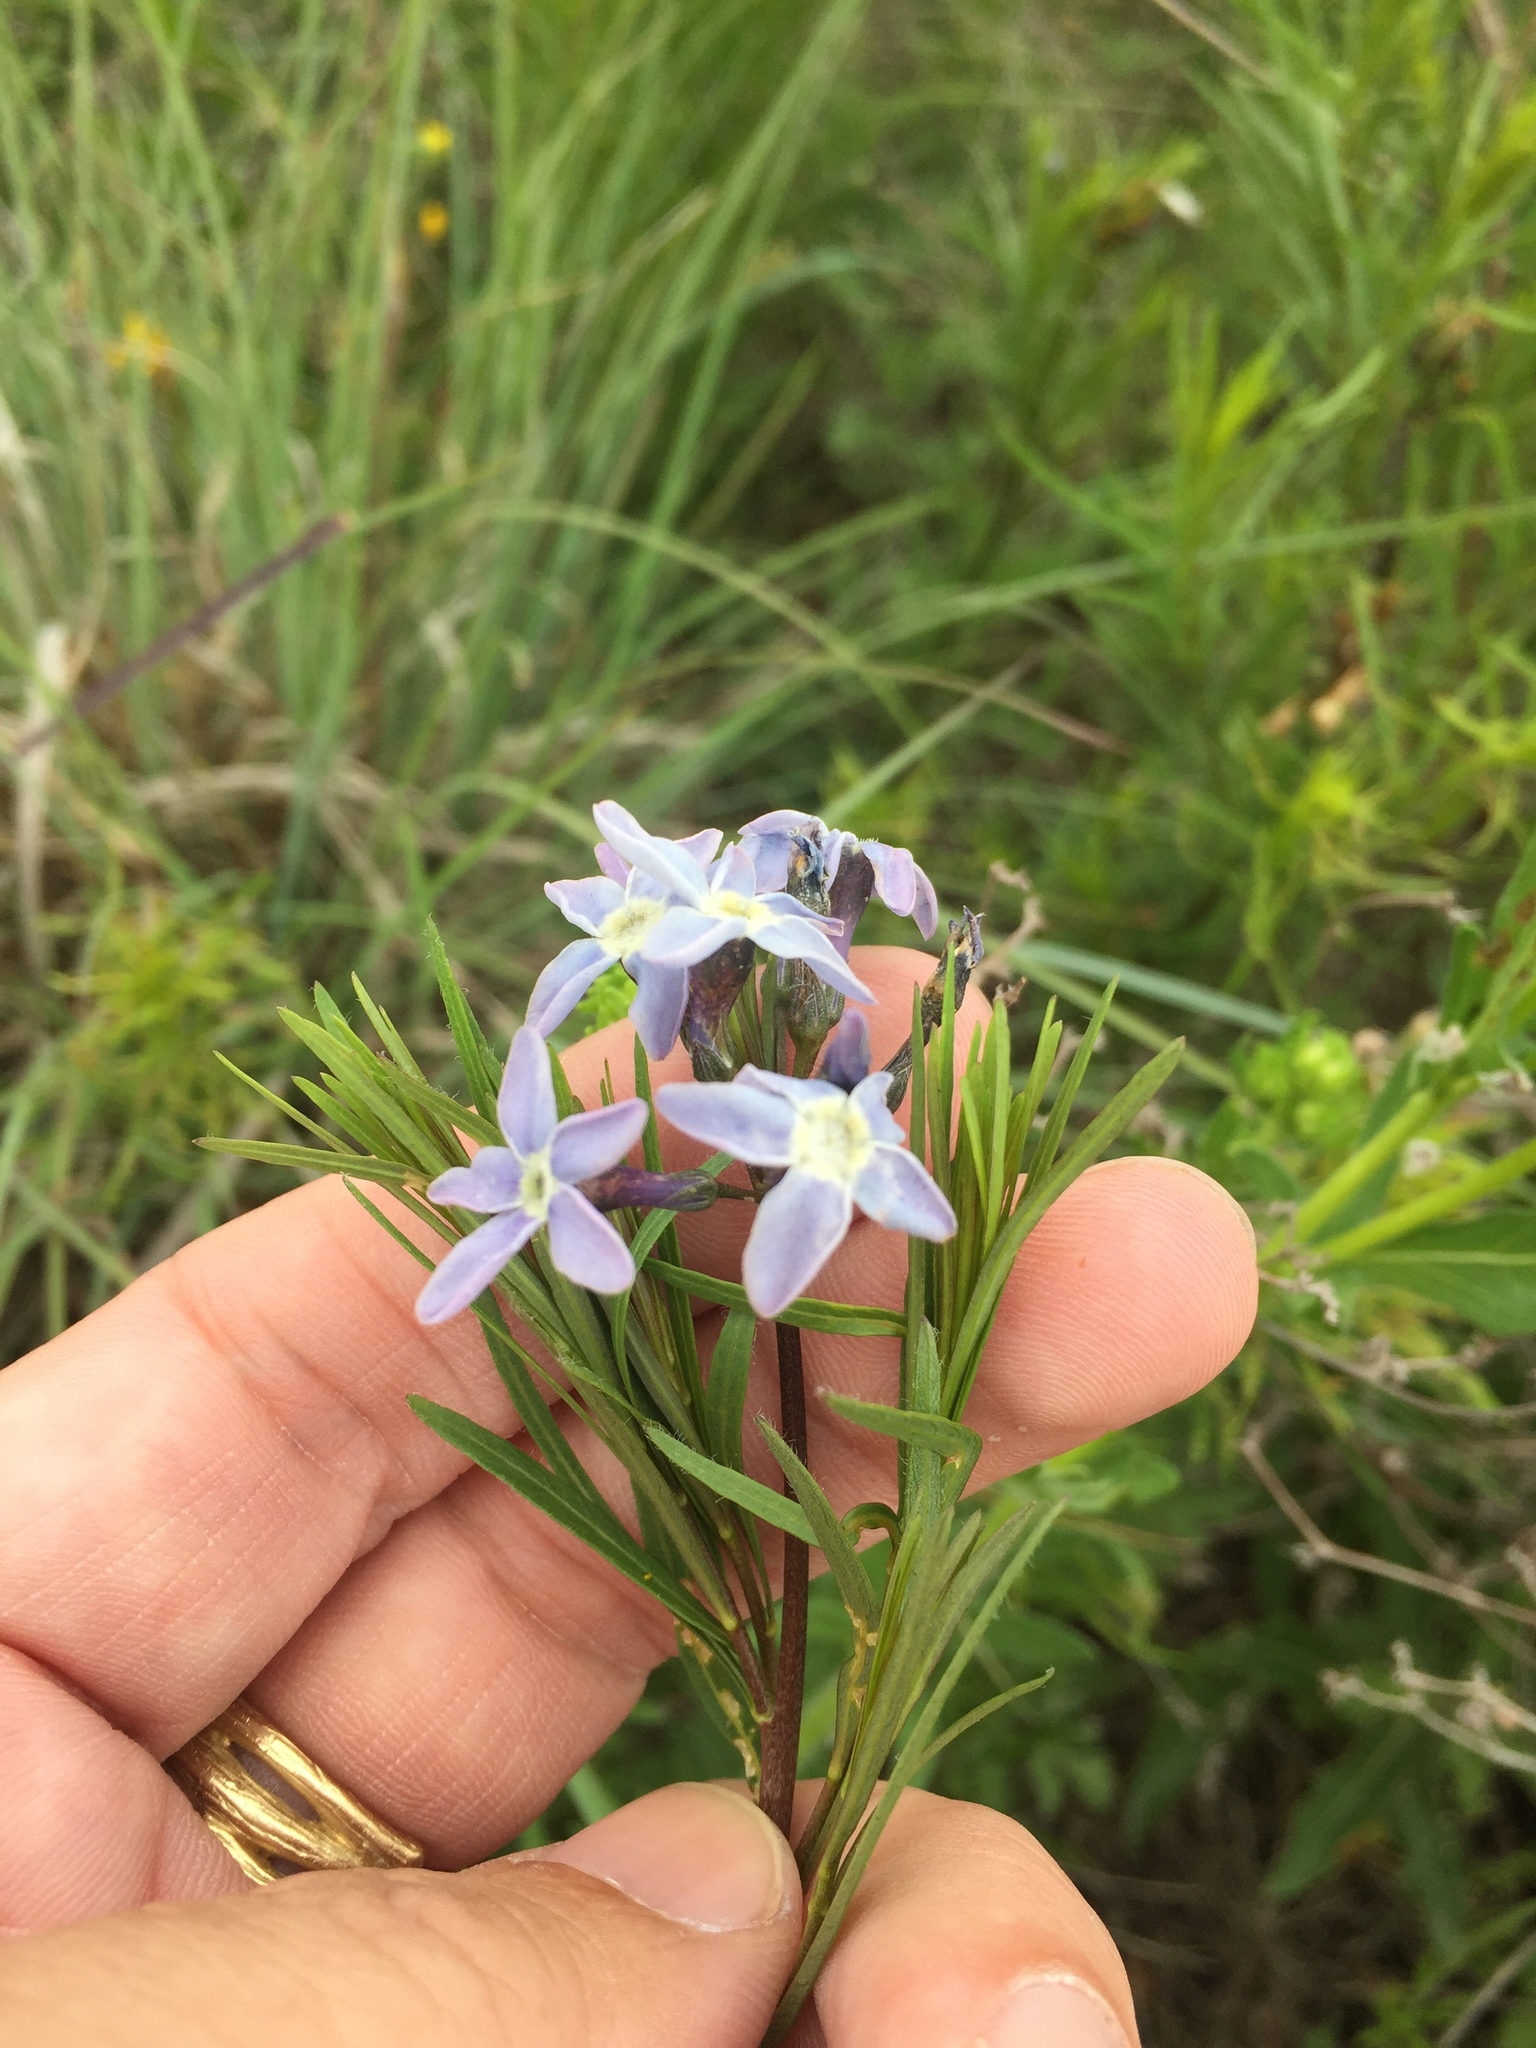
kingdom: Plantae
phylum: Tracheophyta
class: Magnoliopsida
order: Gentianales
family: Apocynaceae
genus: Amsonia
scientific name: Amsonia ciliata
